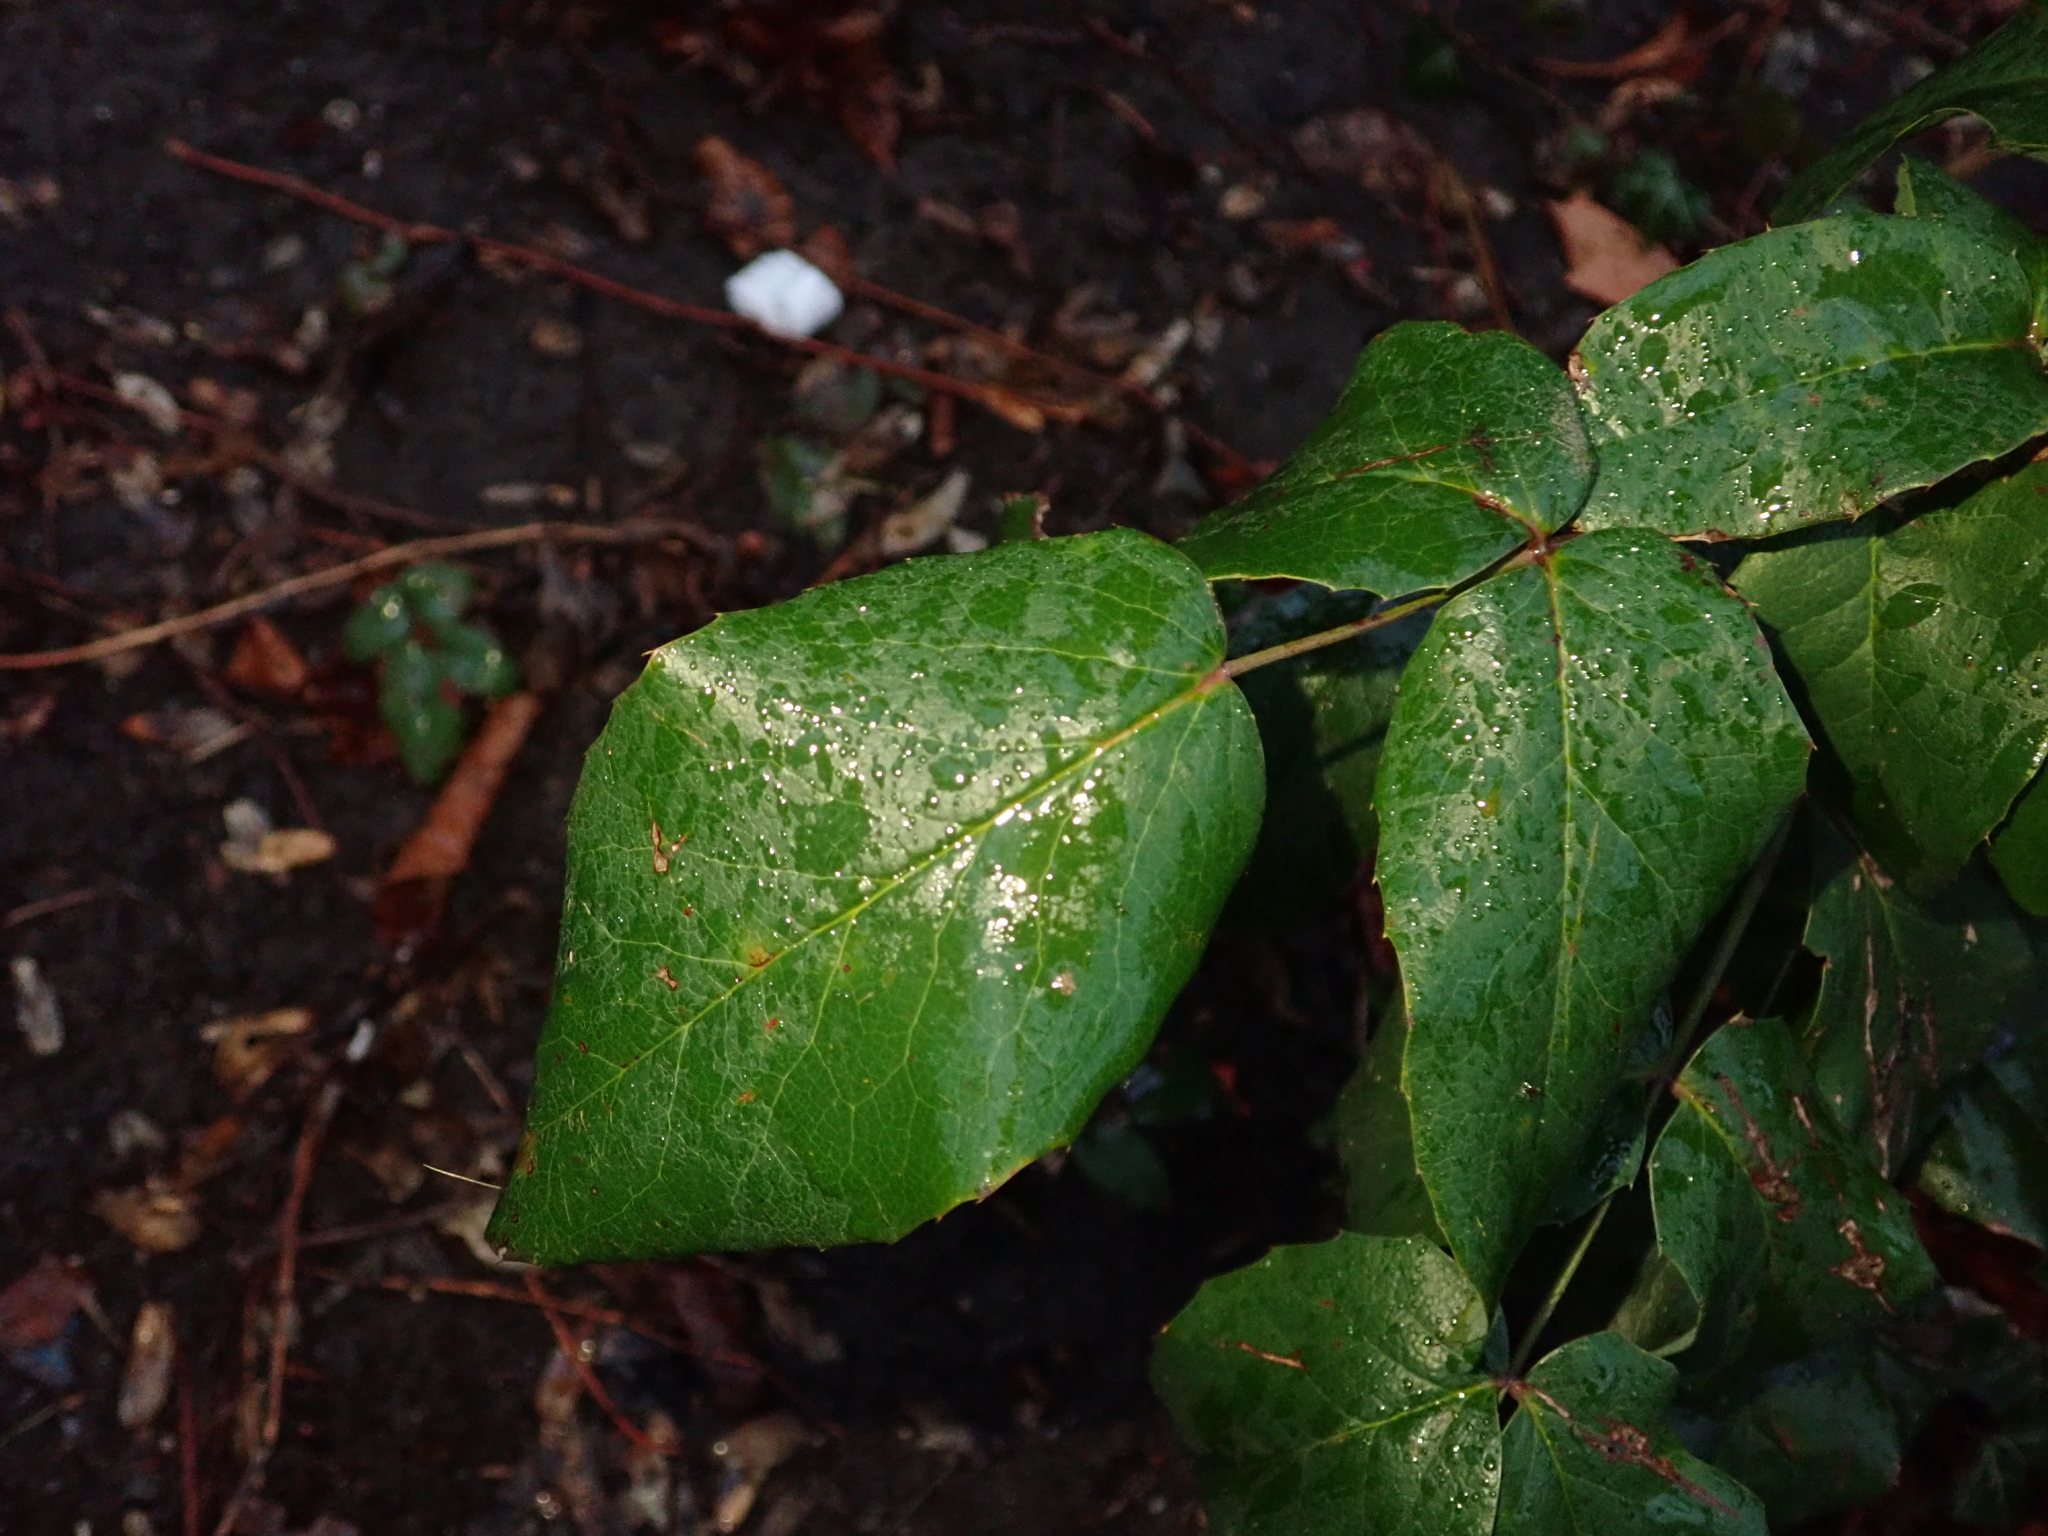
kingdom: Plantae
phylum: Tracheophyta
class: Magnoliopsida
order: Ranunculales
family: Berberidaceae
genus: Mahonia
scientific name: Mahonia aquifolium
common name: Oregon-grape
